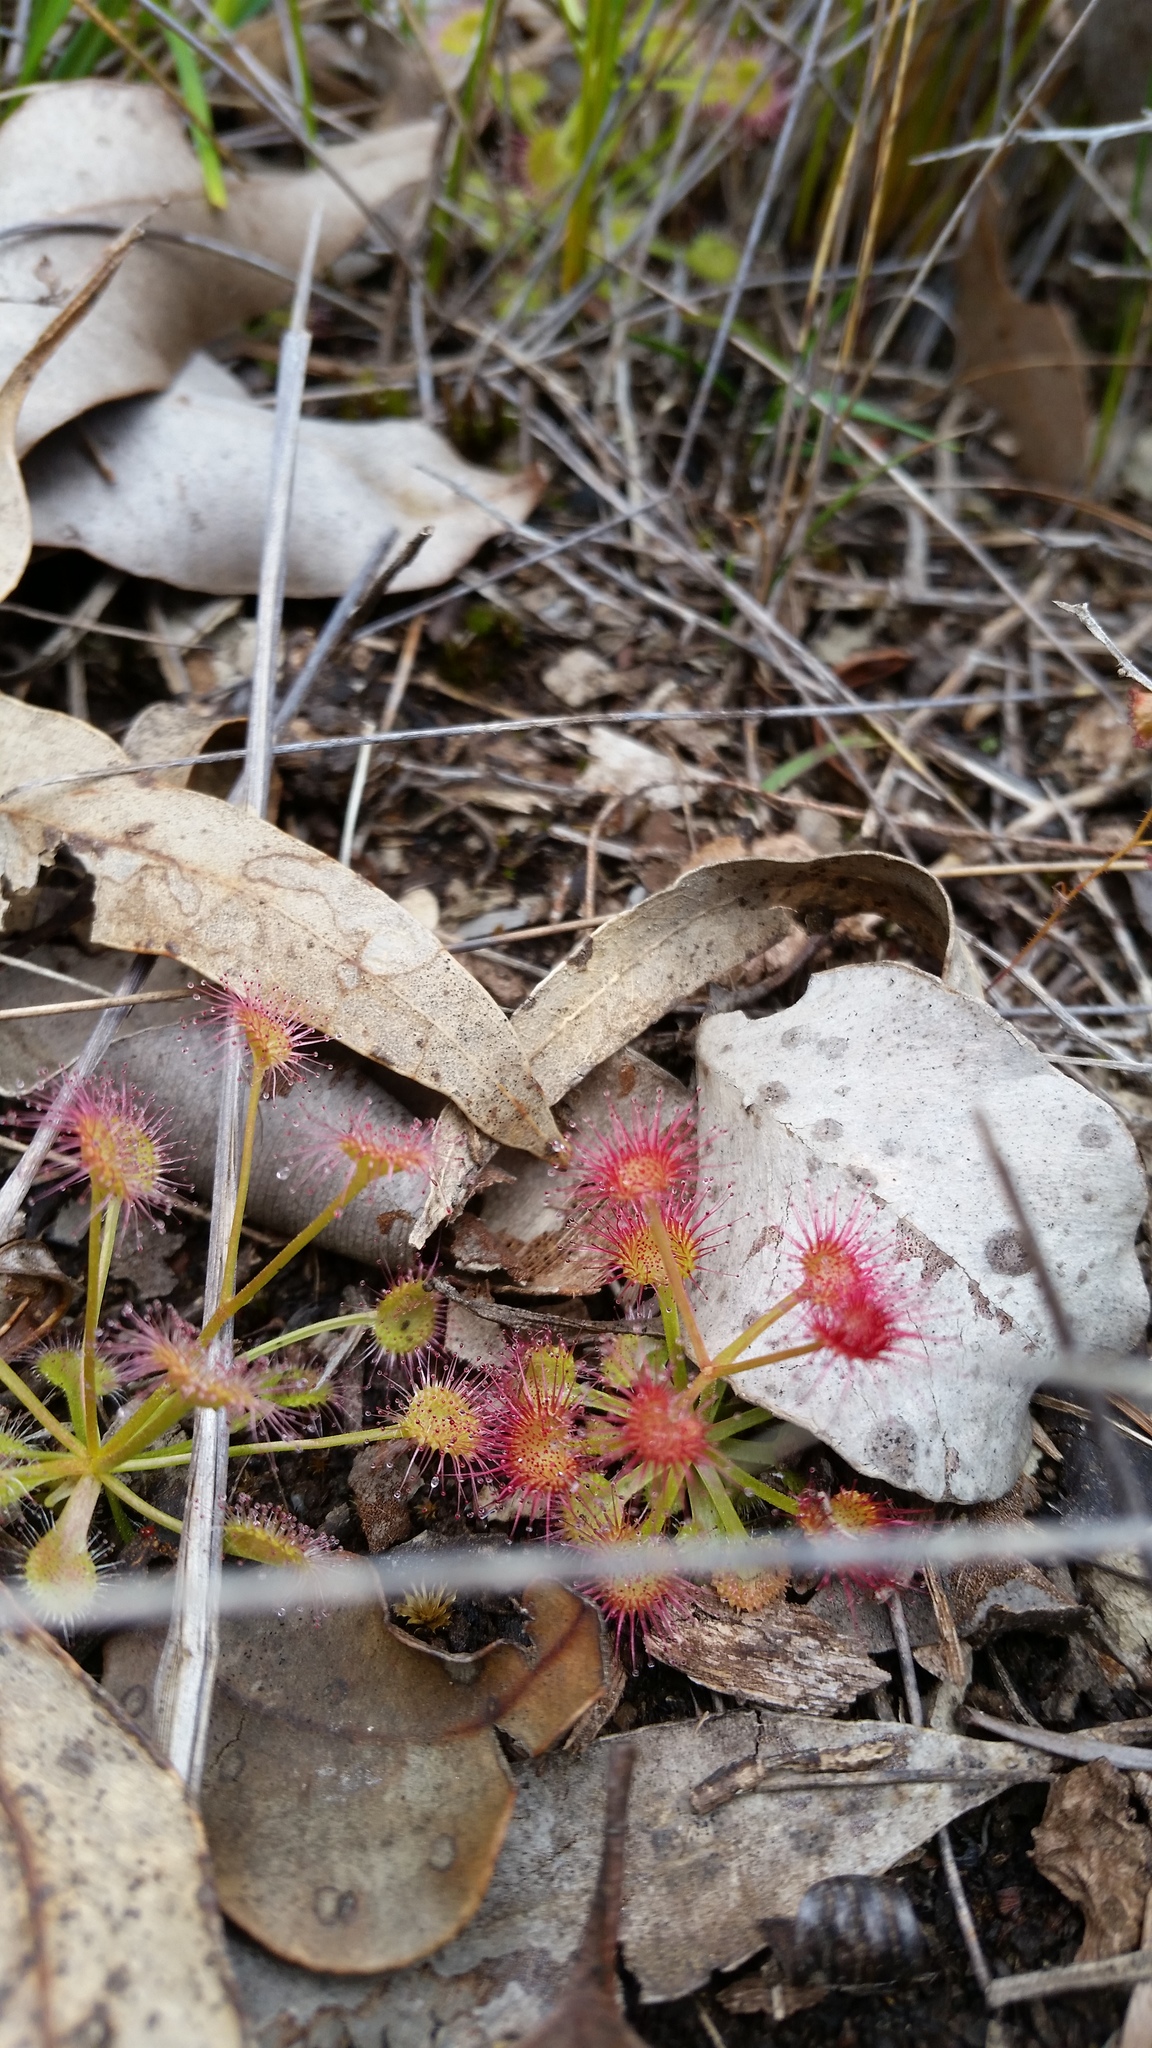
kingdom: Plantae
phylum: Tracheophyta
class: Magnoliopsida
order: Caryophyllales
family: Droseraceae
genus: Drosera
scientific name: Drosera stolonifera
